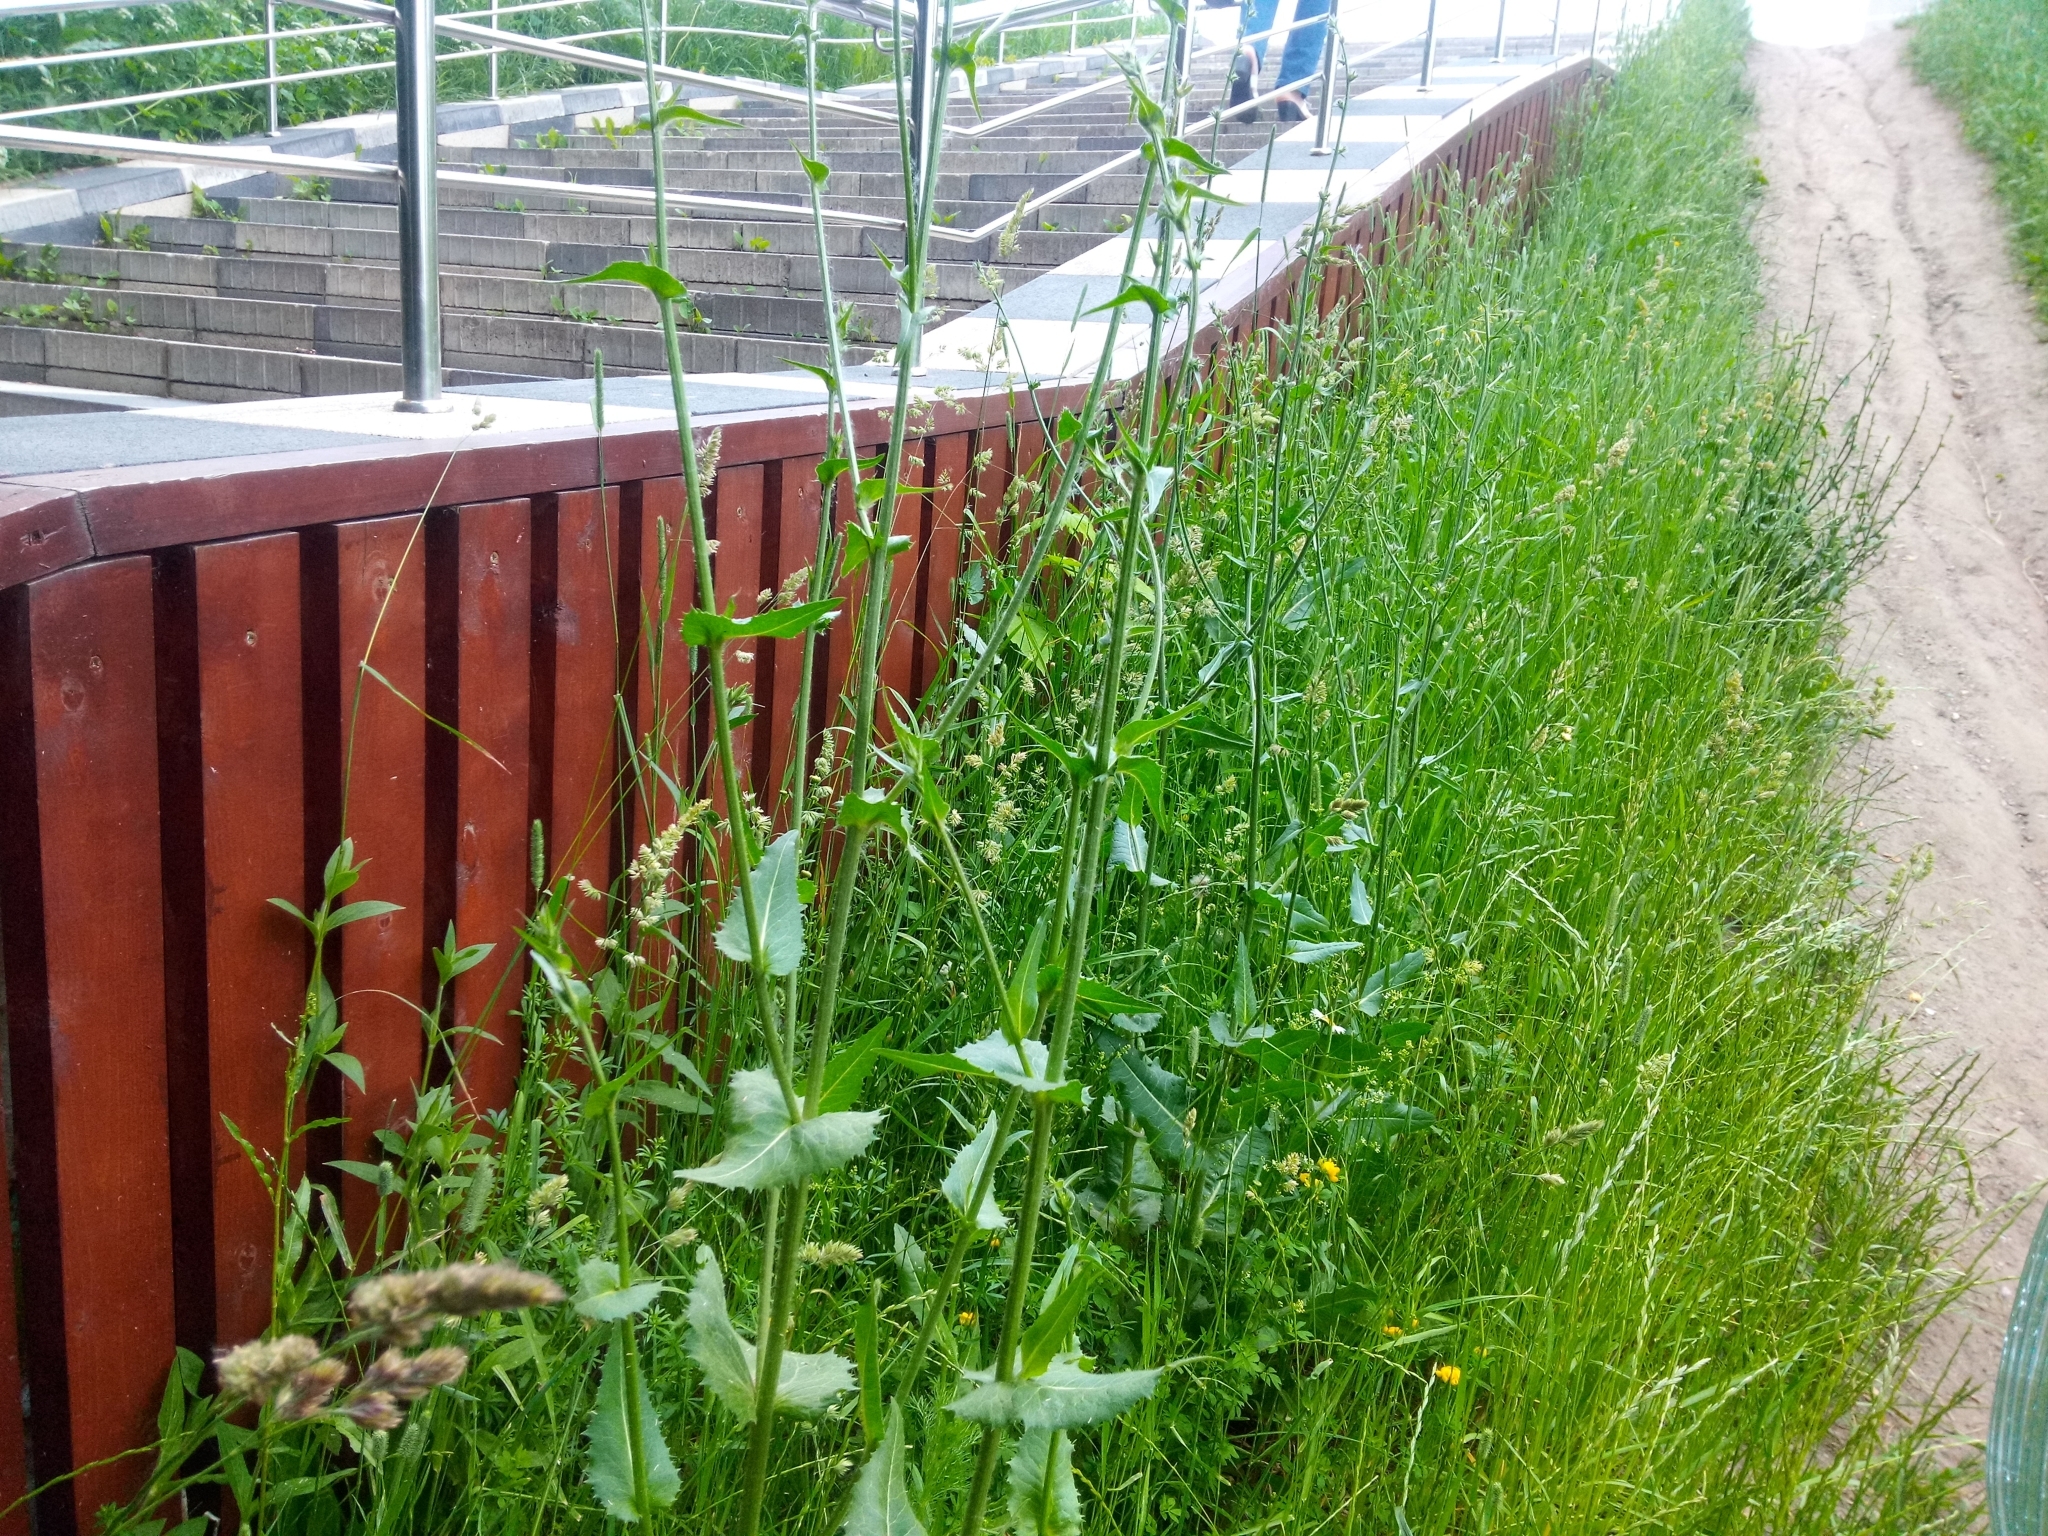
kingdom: Plantae
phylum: Tracheophyta
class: Magnoliopsida
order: Asterales
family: Asteraceae
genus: Cichorium
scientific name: Cichorium intybus
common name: Chicory
